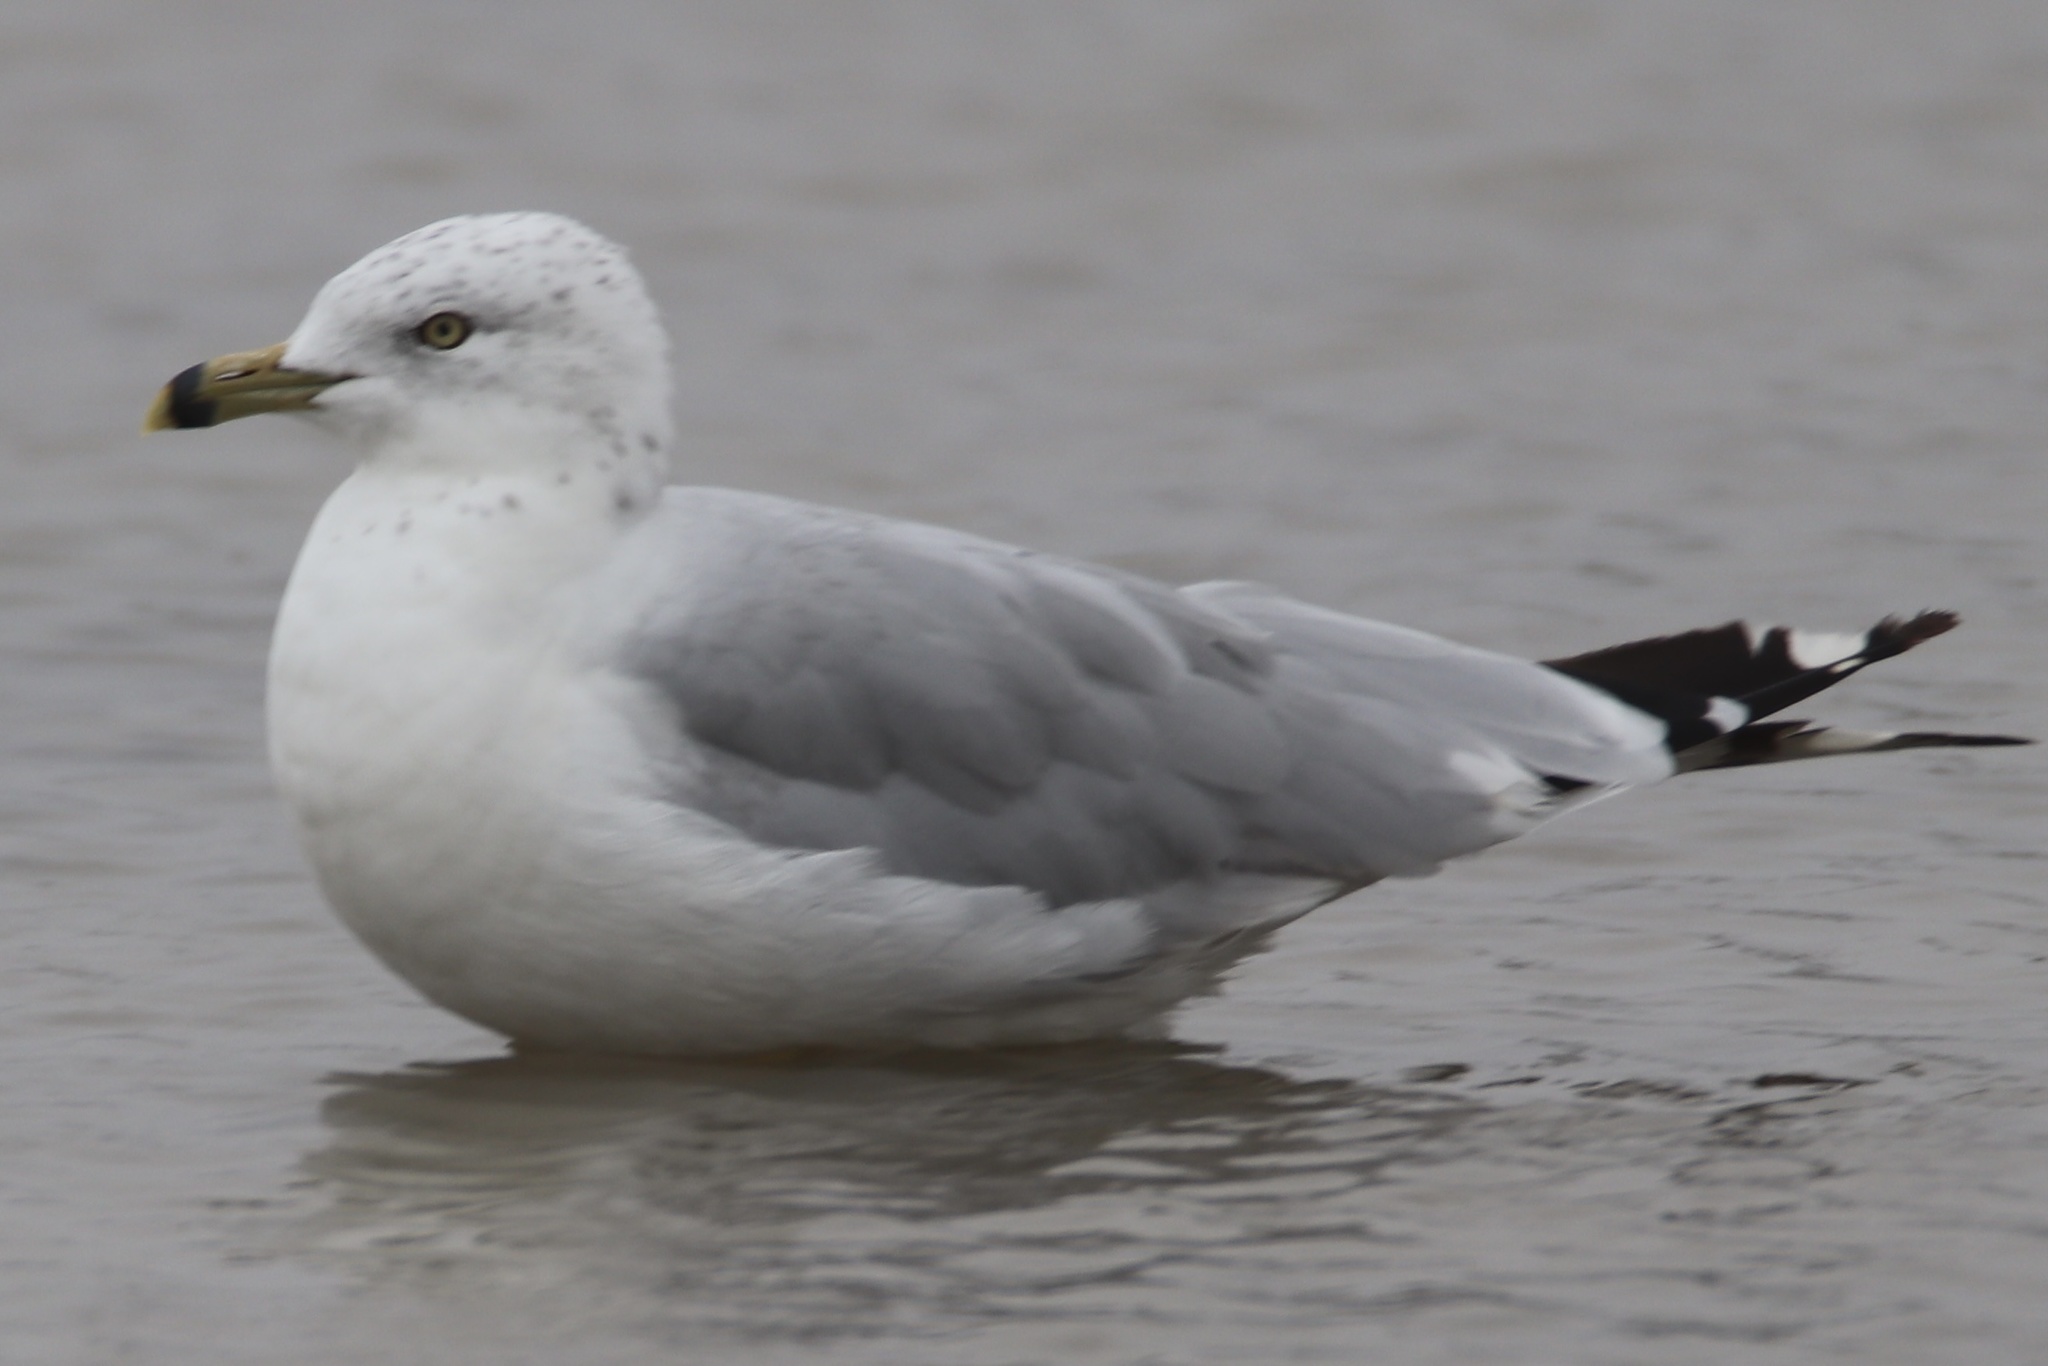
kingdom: Animalia
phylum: Chordata
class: Aves
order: Charadriiformes
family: Laridae
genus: Larus
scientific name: Larus delawarensis
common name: Ring-billed gull
